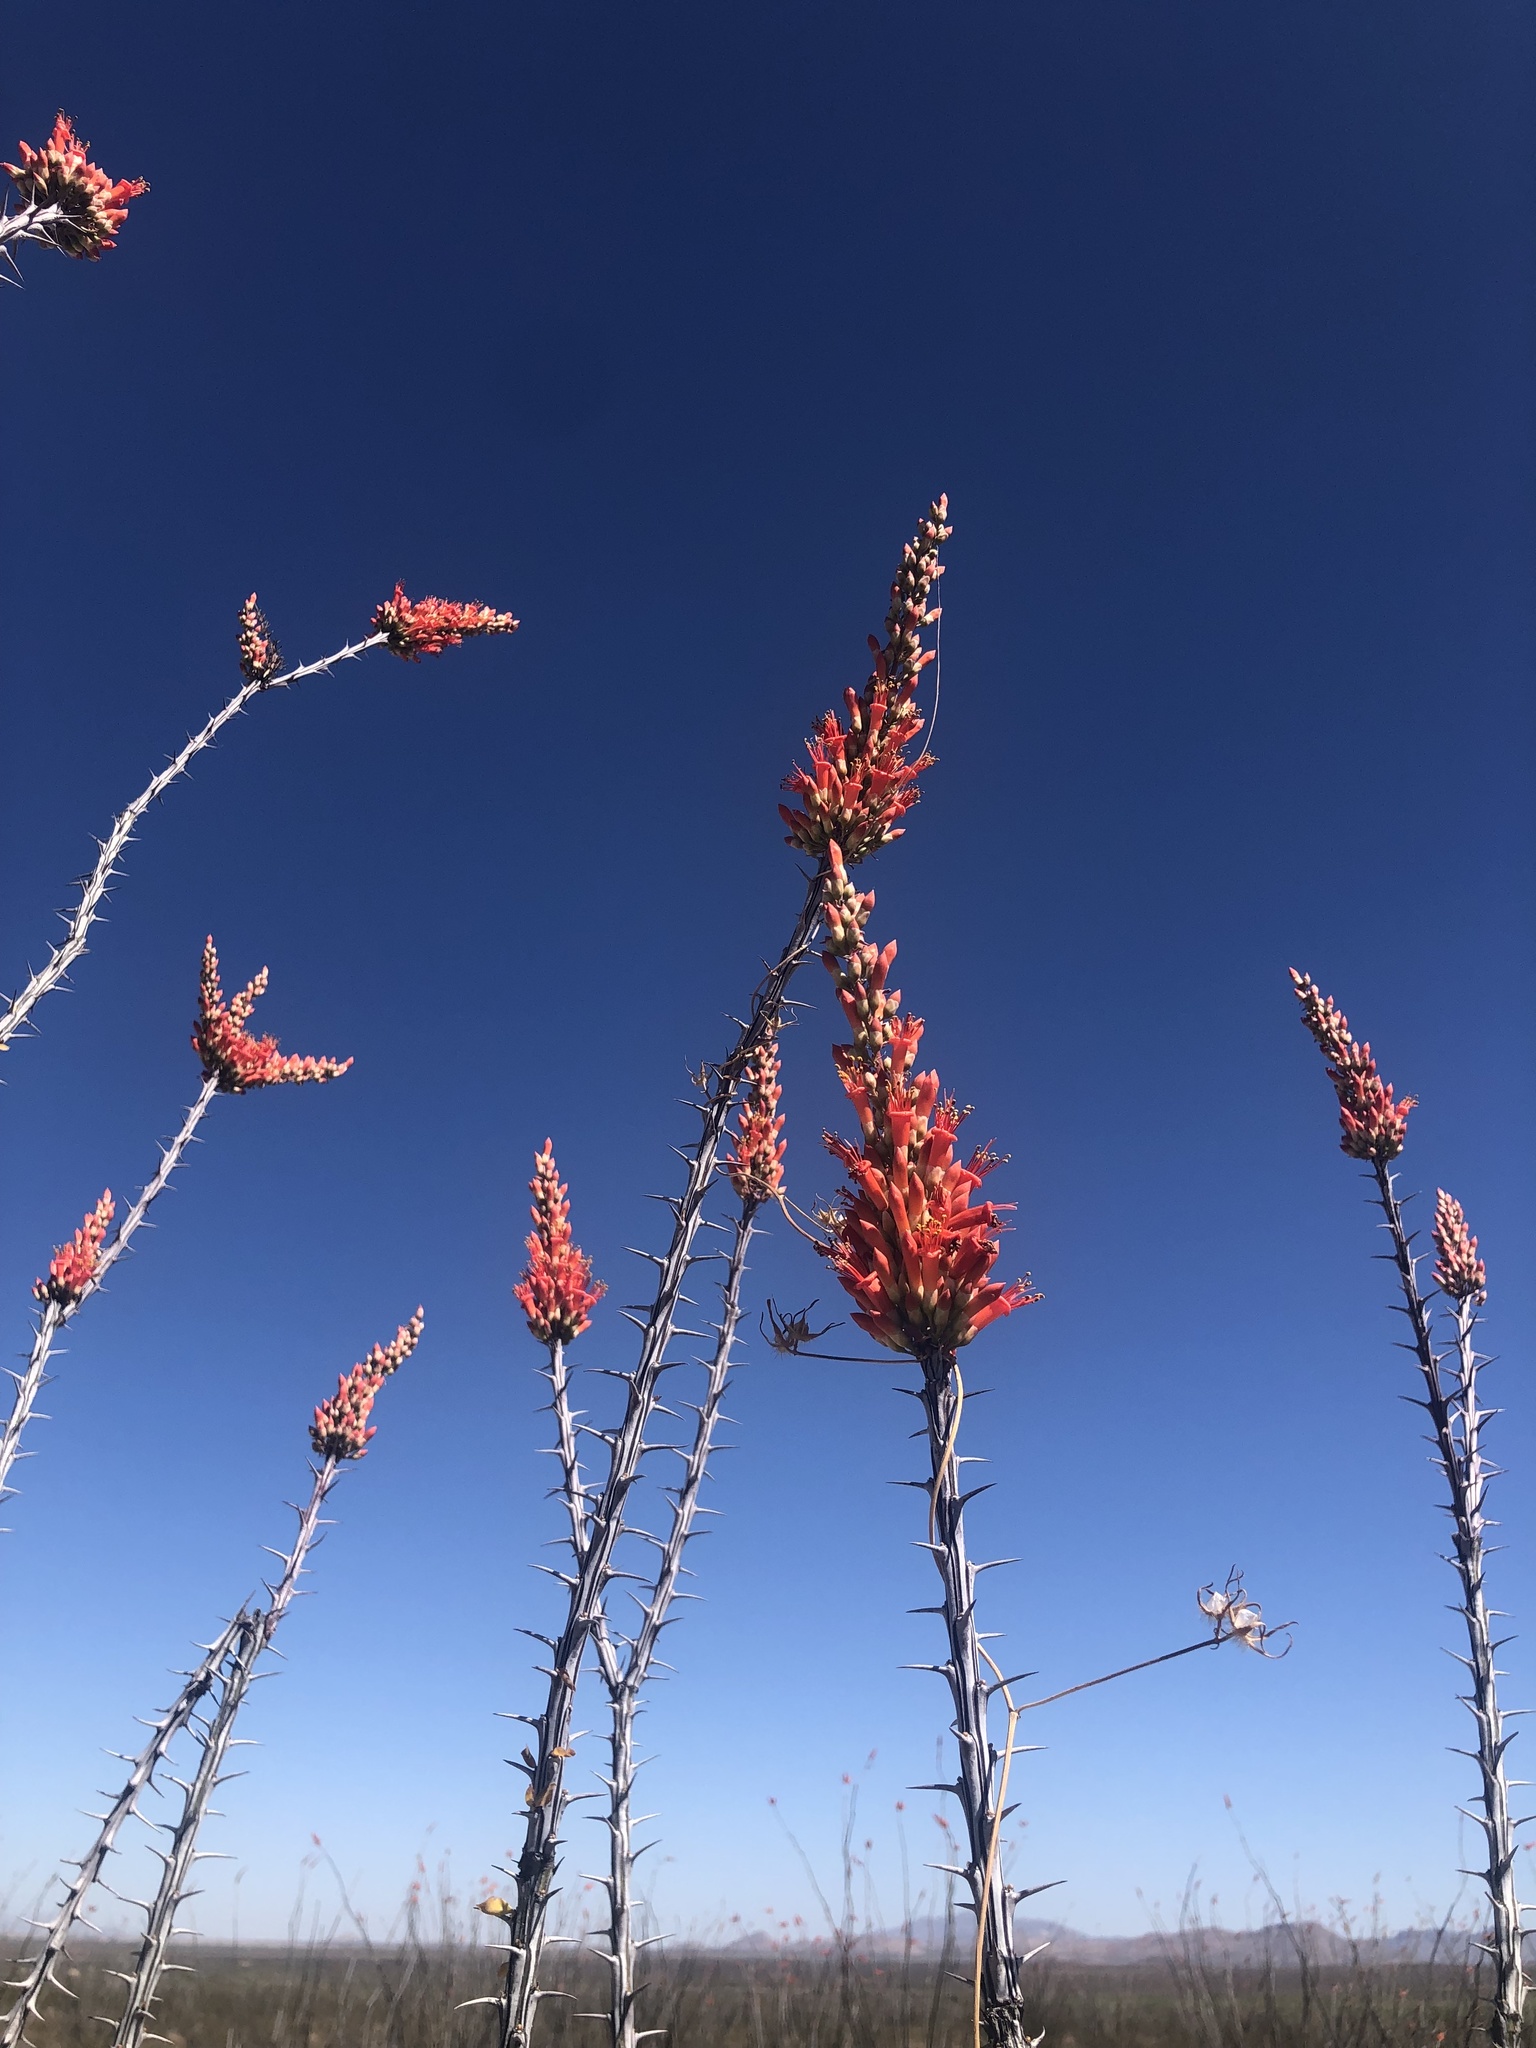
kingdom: Plantae
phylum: Tracheophyta
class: Magnoliopsida
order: Ericales
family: Fouquieriaceae
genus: Fouquieria
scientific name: Fouquieria splendens
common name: Vine-cactus
